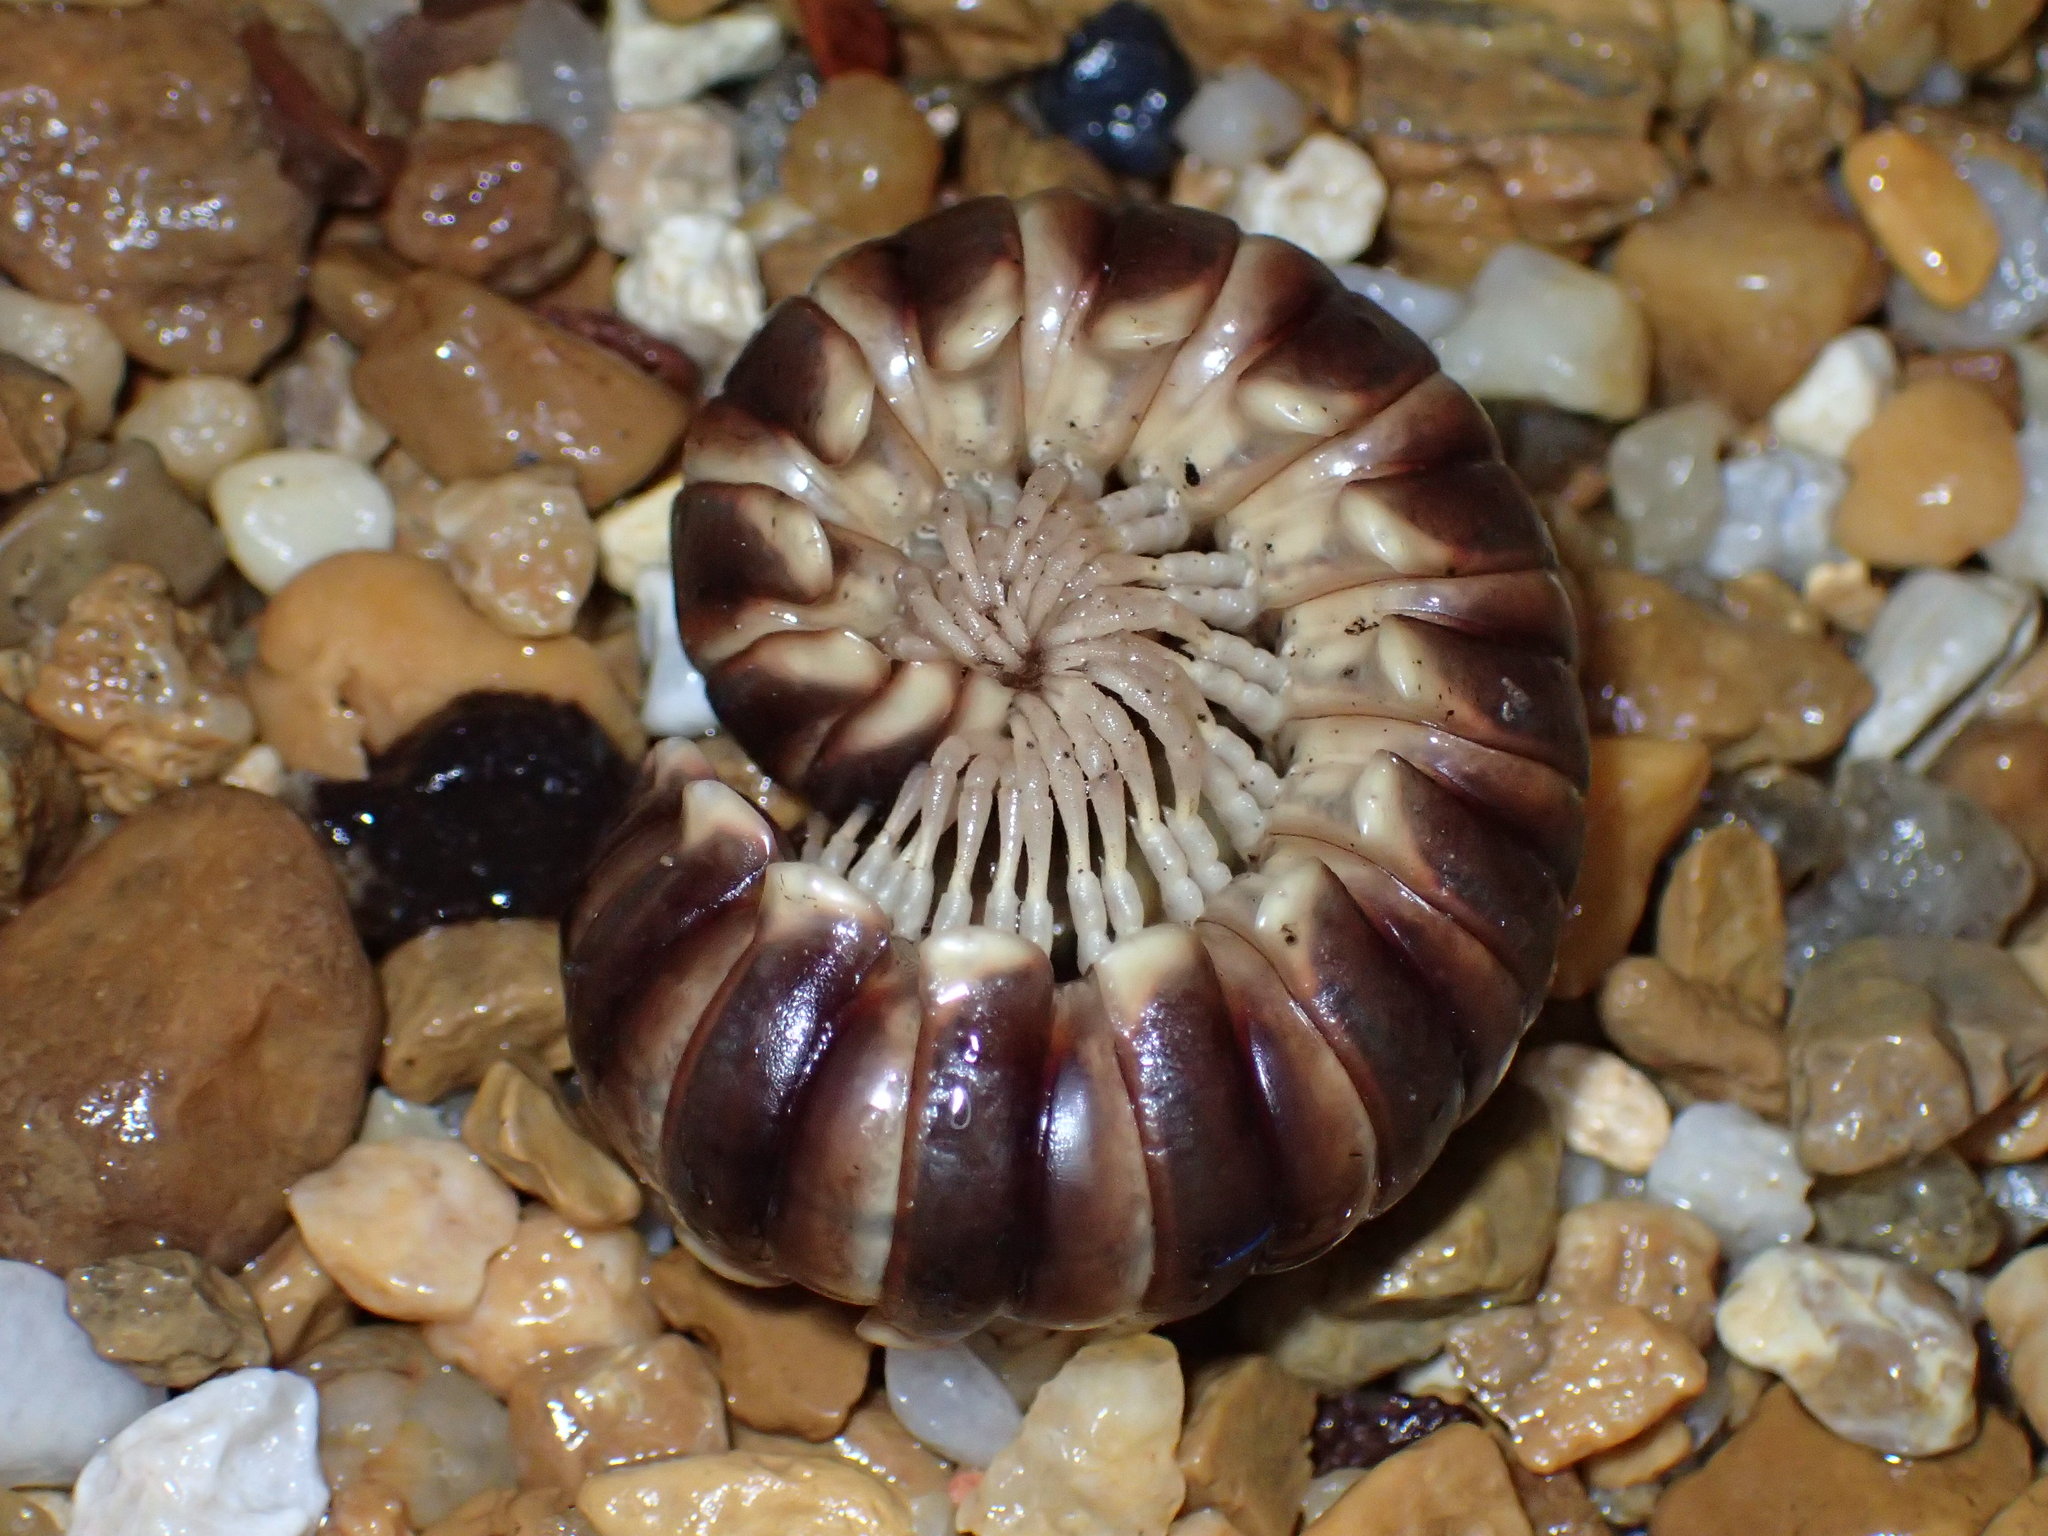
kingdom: Animalia
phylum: Arthropoda
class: Diplopoda
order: Polydesmida
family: Xystodesmidae
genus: Pachydesmus
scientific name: Pachydesmus retrorsus
